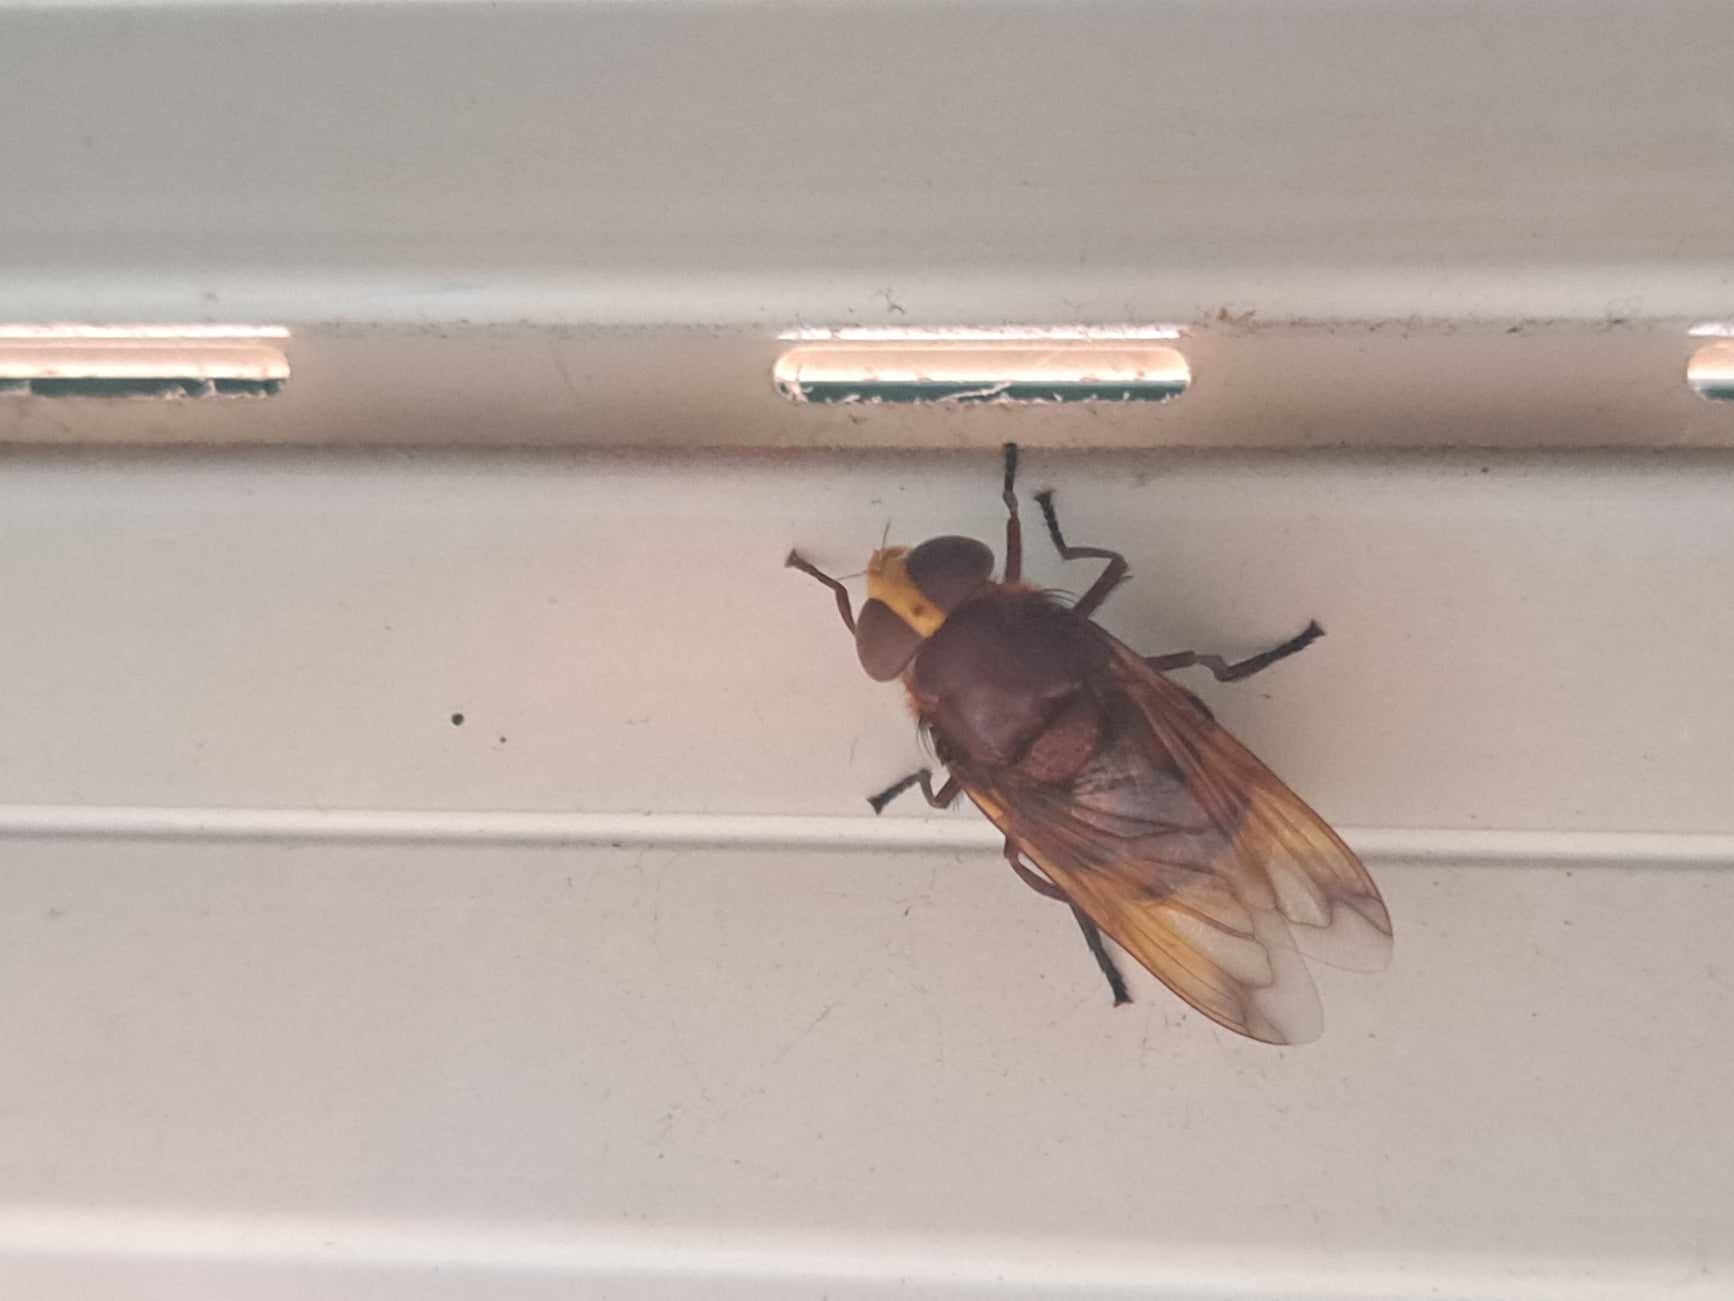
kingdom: Animalia
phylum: Arthropoda
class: Insecta
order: Diptera
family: Syrphidae
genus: Volucella
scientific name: Volucella zonaria
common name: Hornet hoverfly
